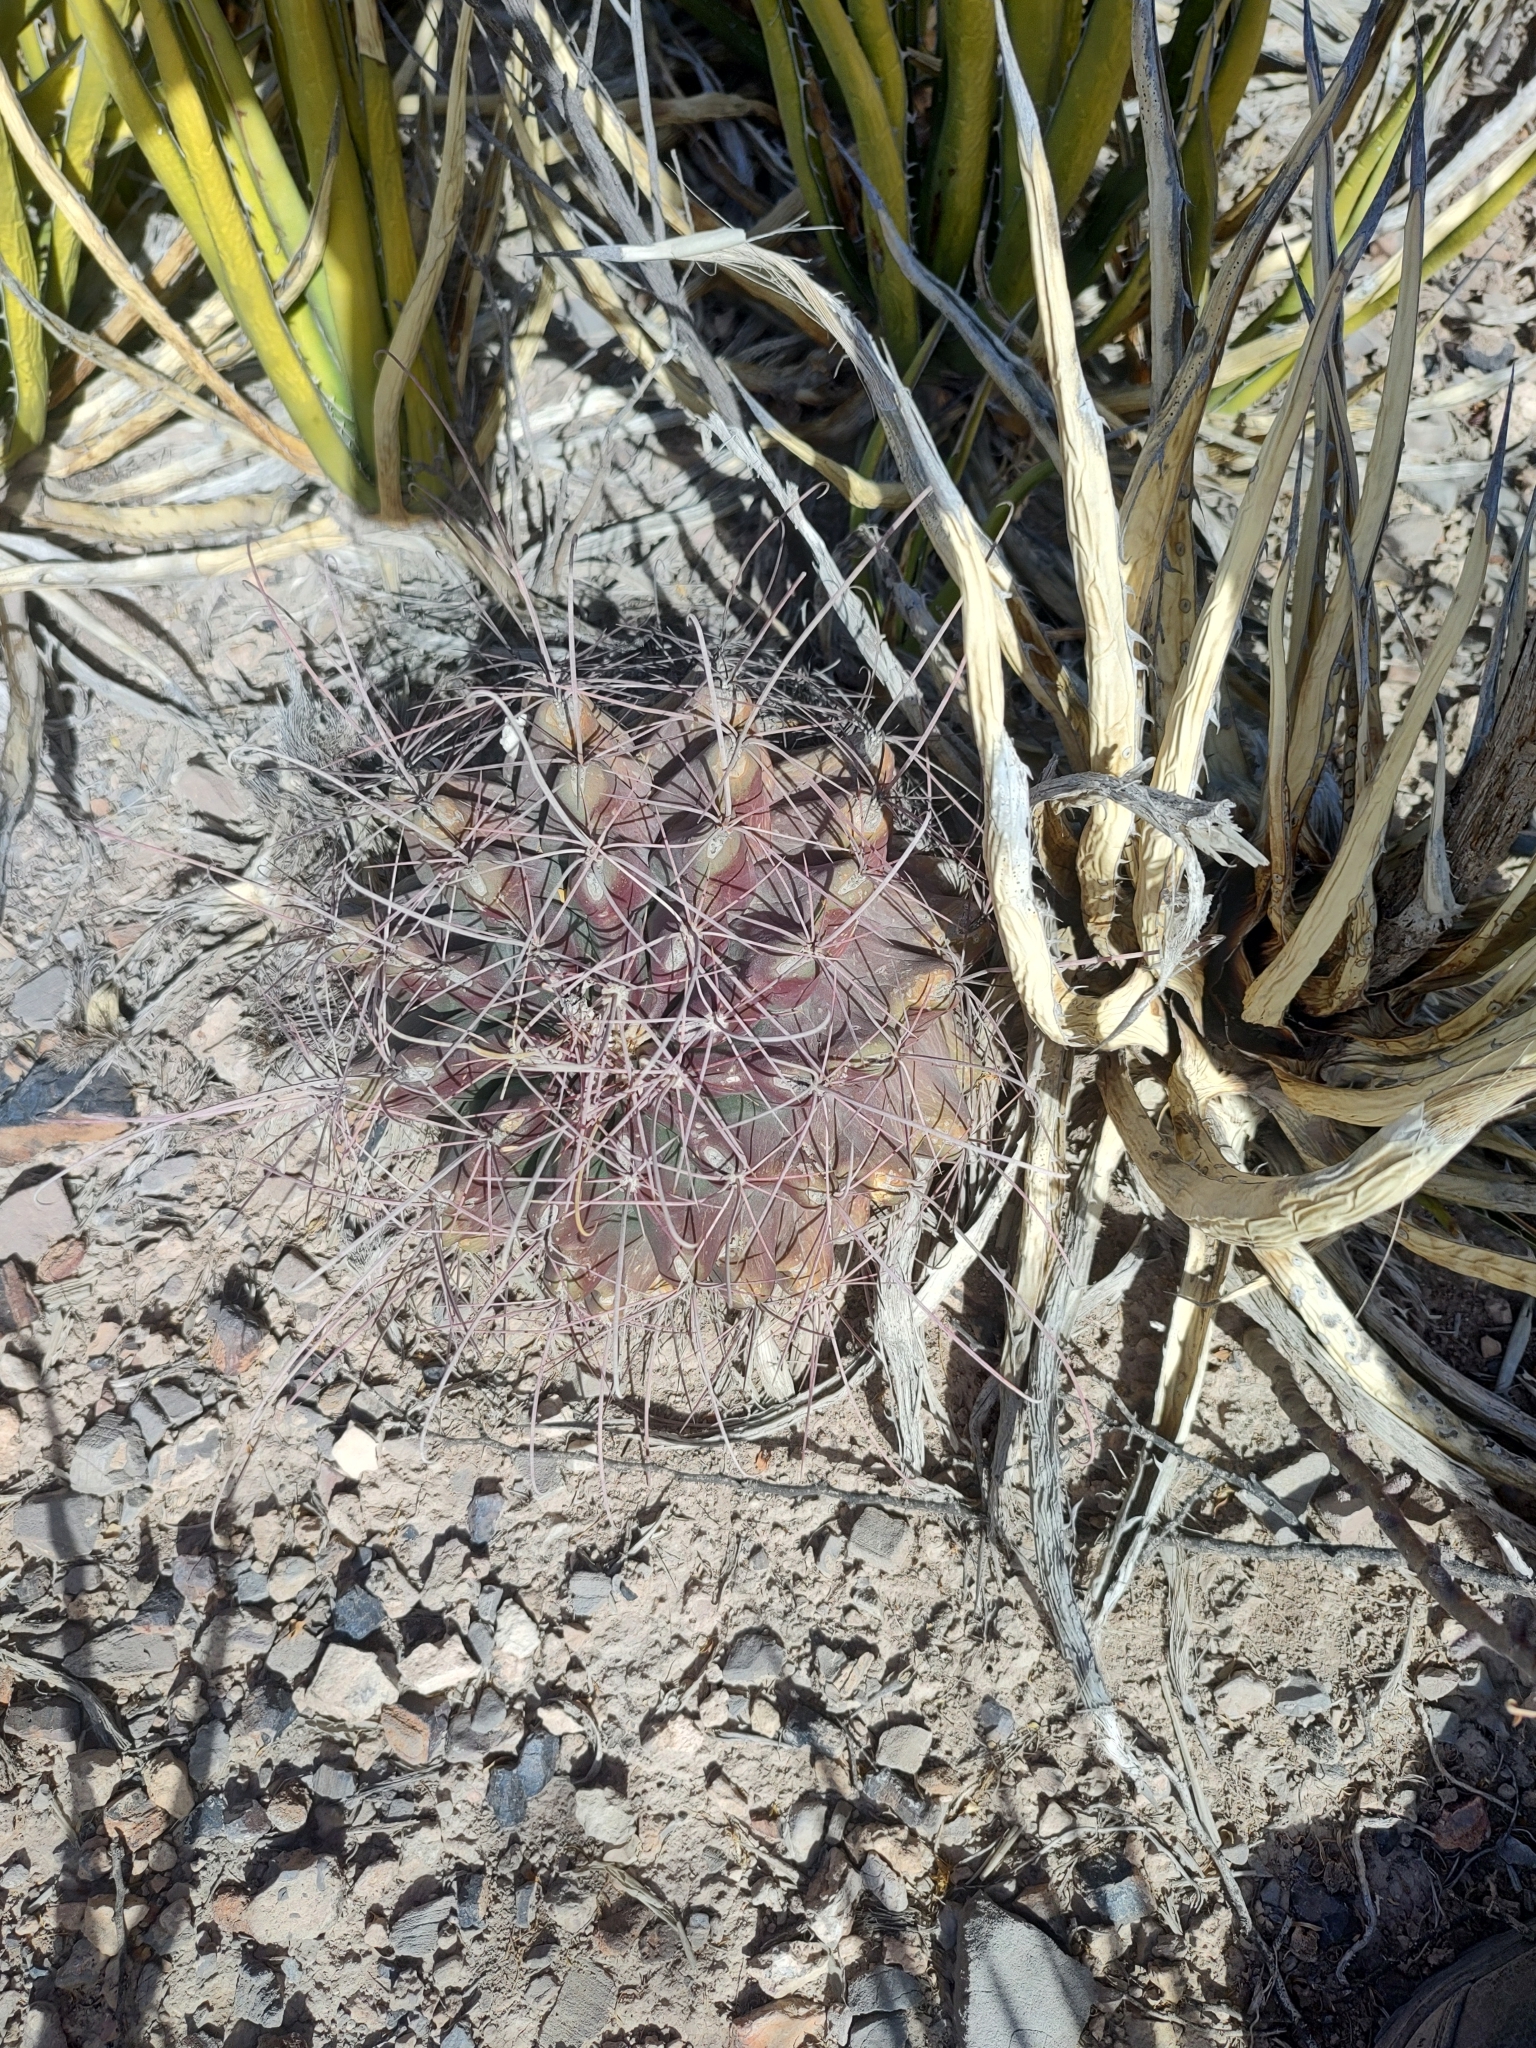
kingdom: Plantae
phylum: Tracheophyta
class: Magnoliopsida
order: Caryophyllales
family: Cactaceae
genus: Bisnaga
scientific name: Bisnaga hamatacantha
